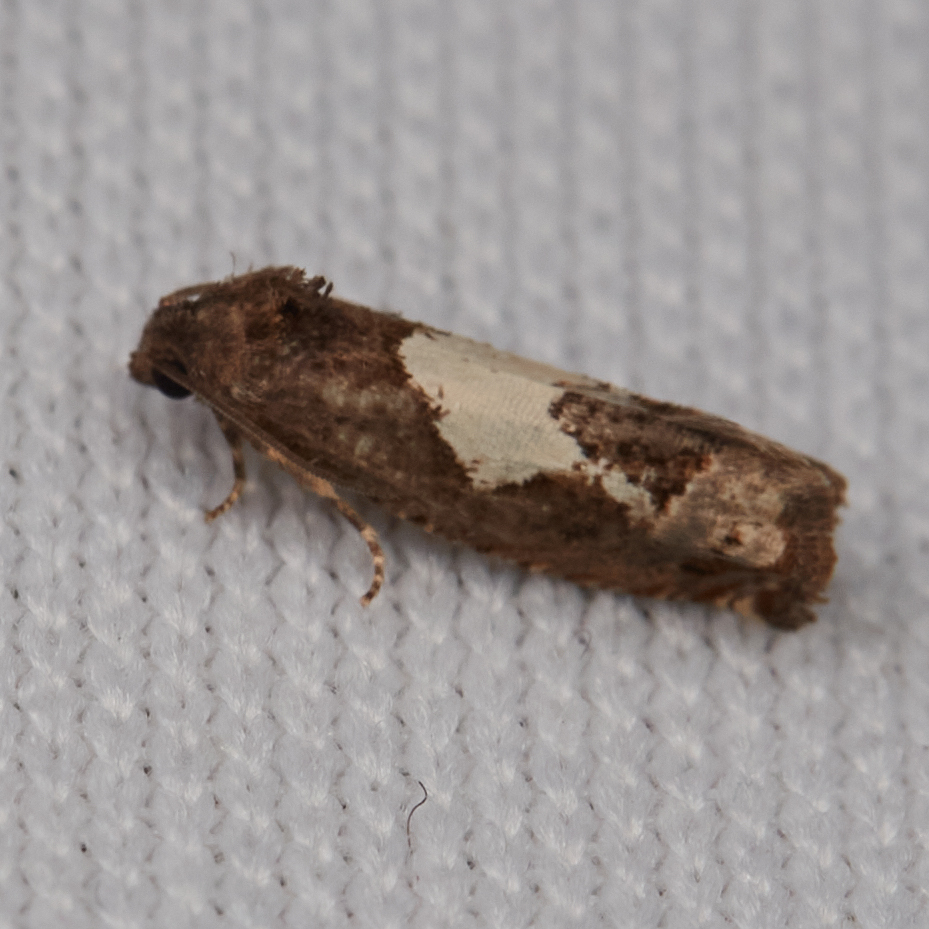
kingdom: Animalia
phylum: Arthropoda
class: Insecta
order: Lepidoptera
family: Tortricidae
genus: Epiblema
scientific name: Epiblema otiosana
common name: Bidens borer moth
